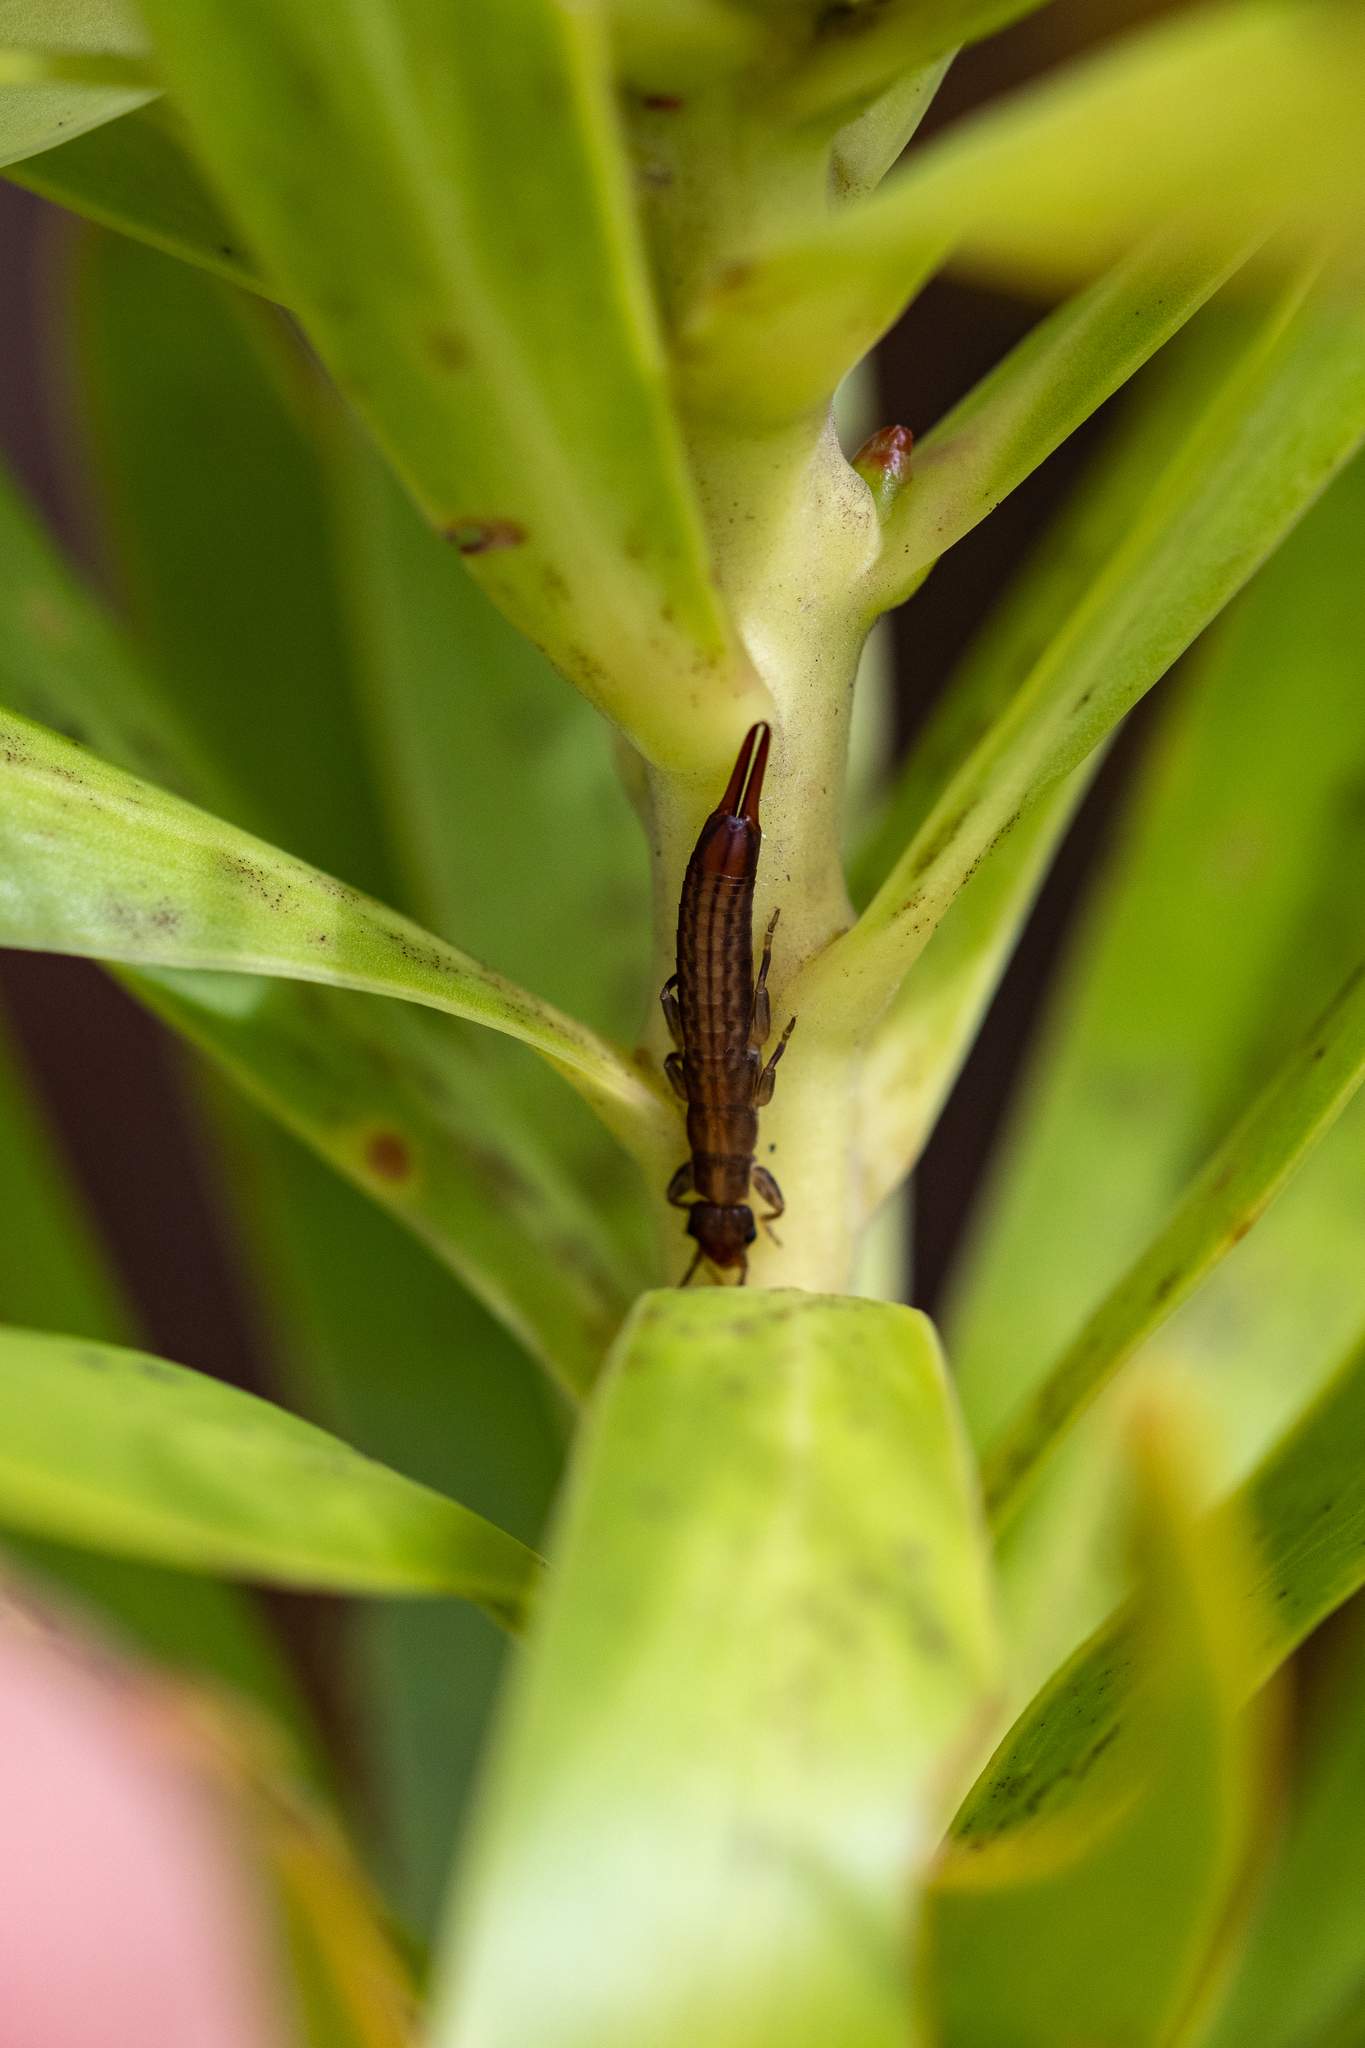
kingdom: Animalia
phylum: Arthropoda
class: Insecta
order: Dermaptera
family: Pygidicranidae
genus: Alloblandex
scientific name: Alloblandex granulatus
